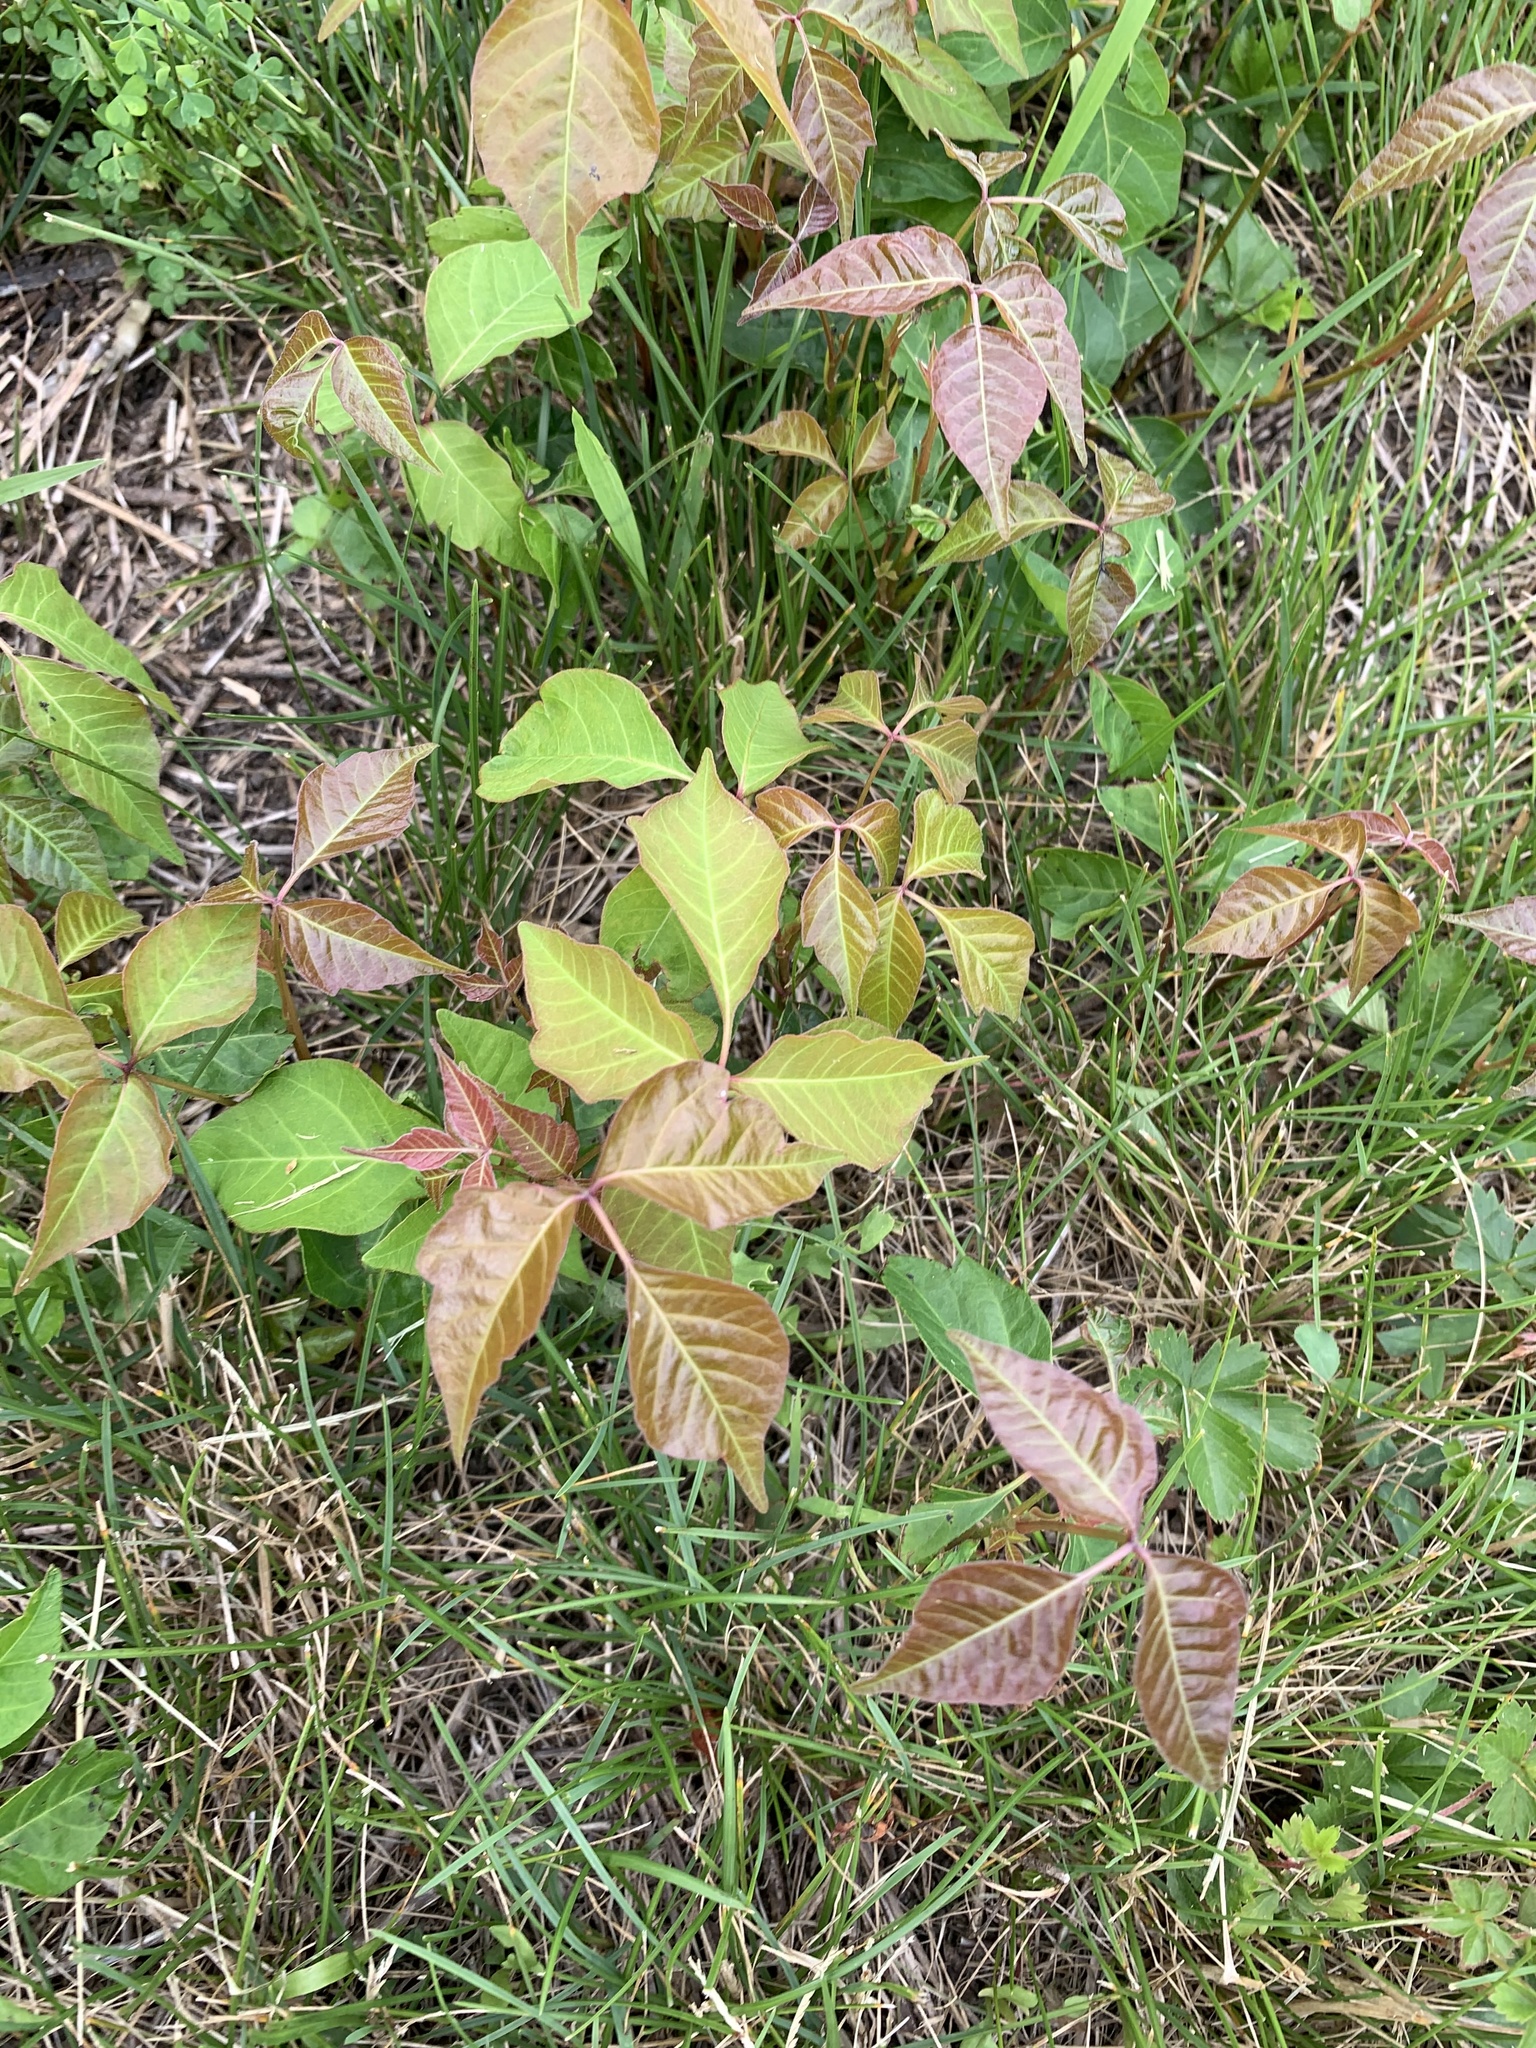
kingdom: Plantae
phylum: Tracheophyta
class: Magnoliopsida
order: Sapindales
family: Anacardiaceae
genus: Toxicodendron
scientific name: Toxicodendron radicans
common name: Poison ivy
